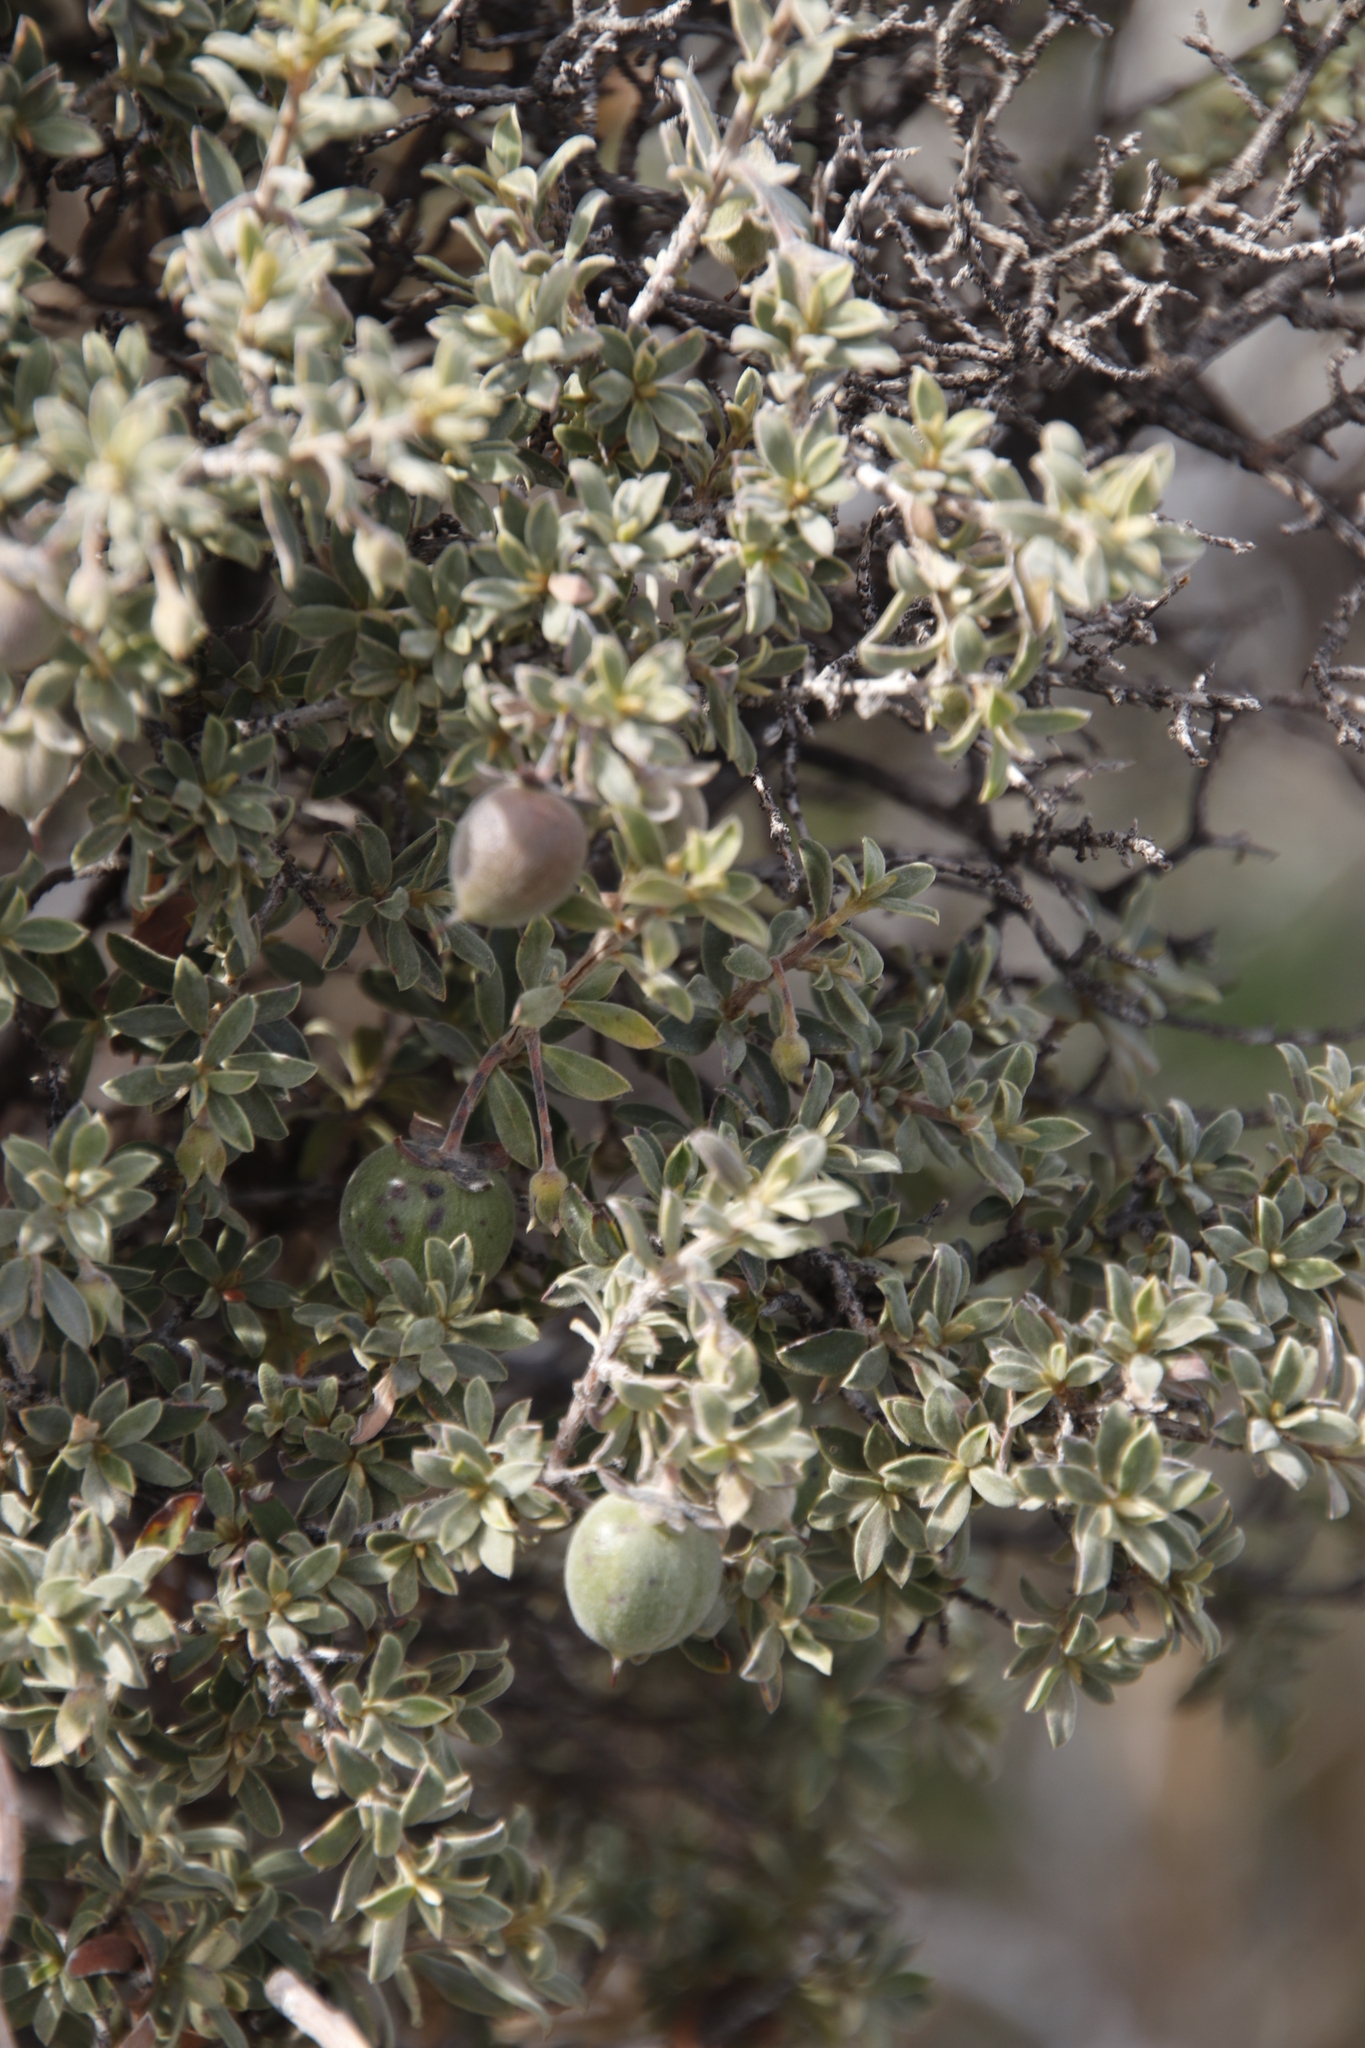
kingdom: Plantae
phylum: Tracheophyta
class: Magnoliopsida
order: Ericales
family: Ebenaceae
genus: Diospyros
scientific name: Diospyros pubescens
